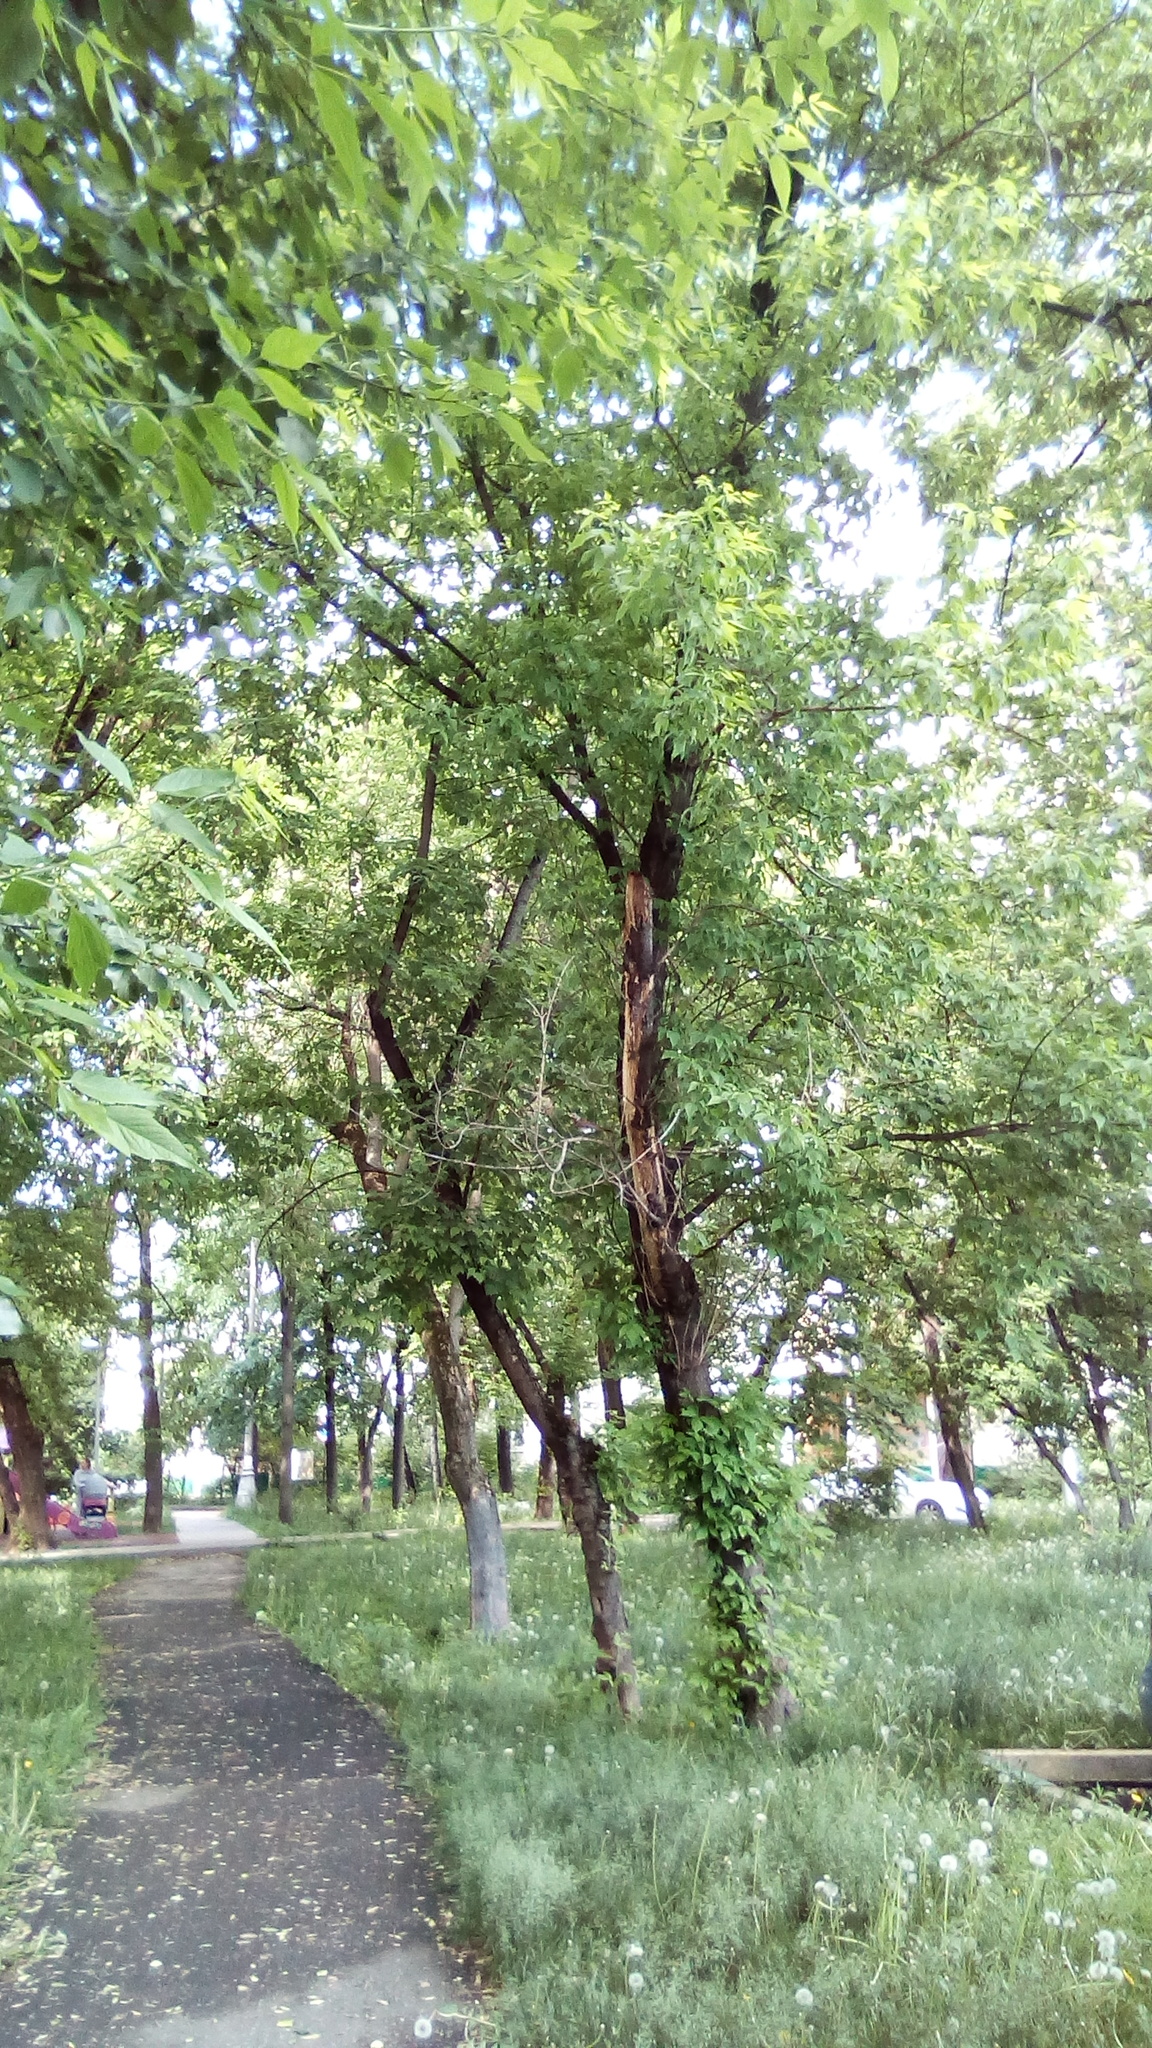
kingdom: Plantae
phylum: Tracheophyta
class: Magnoliopsida
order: Sapindales
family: Sapindaceae
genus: Acer
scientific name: Acer negundo
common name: Ashleaf maple
